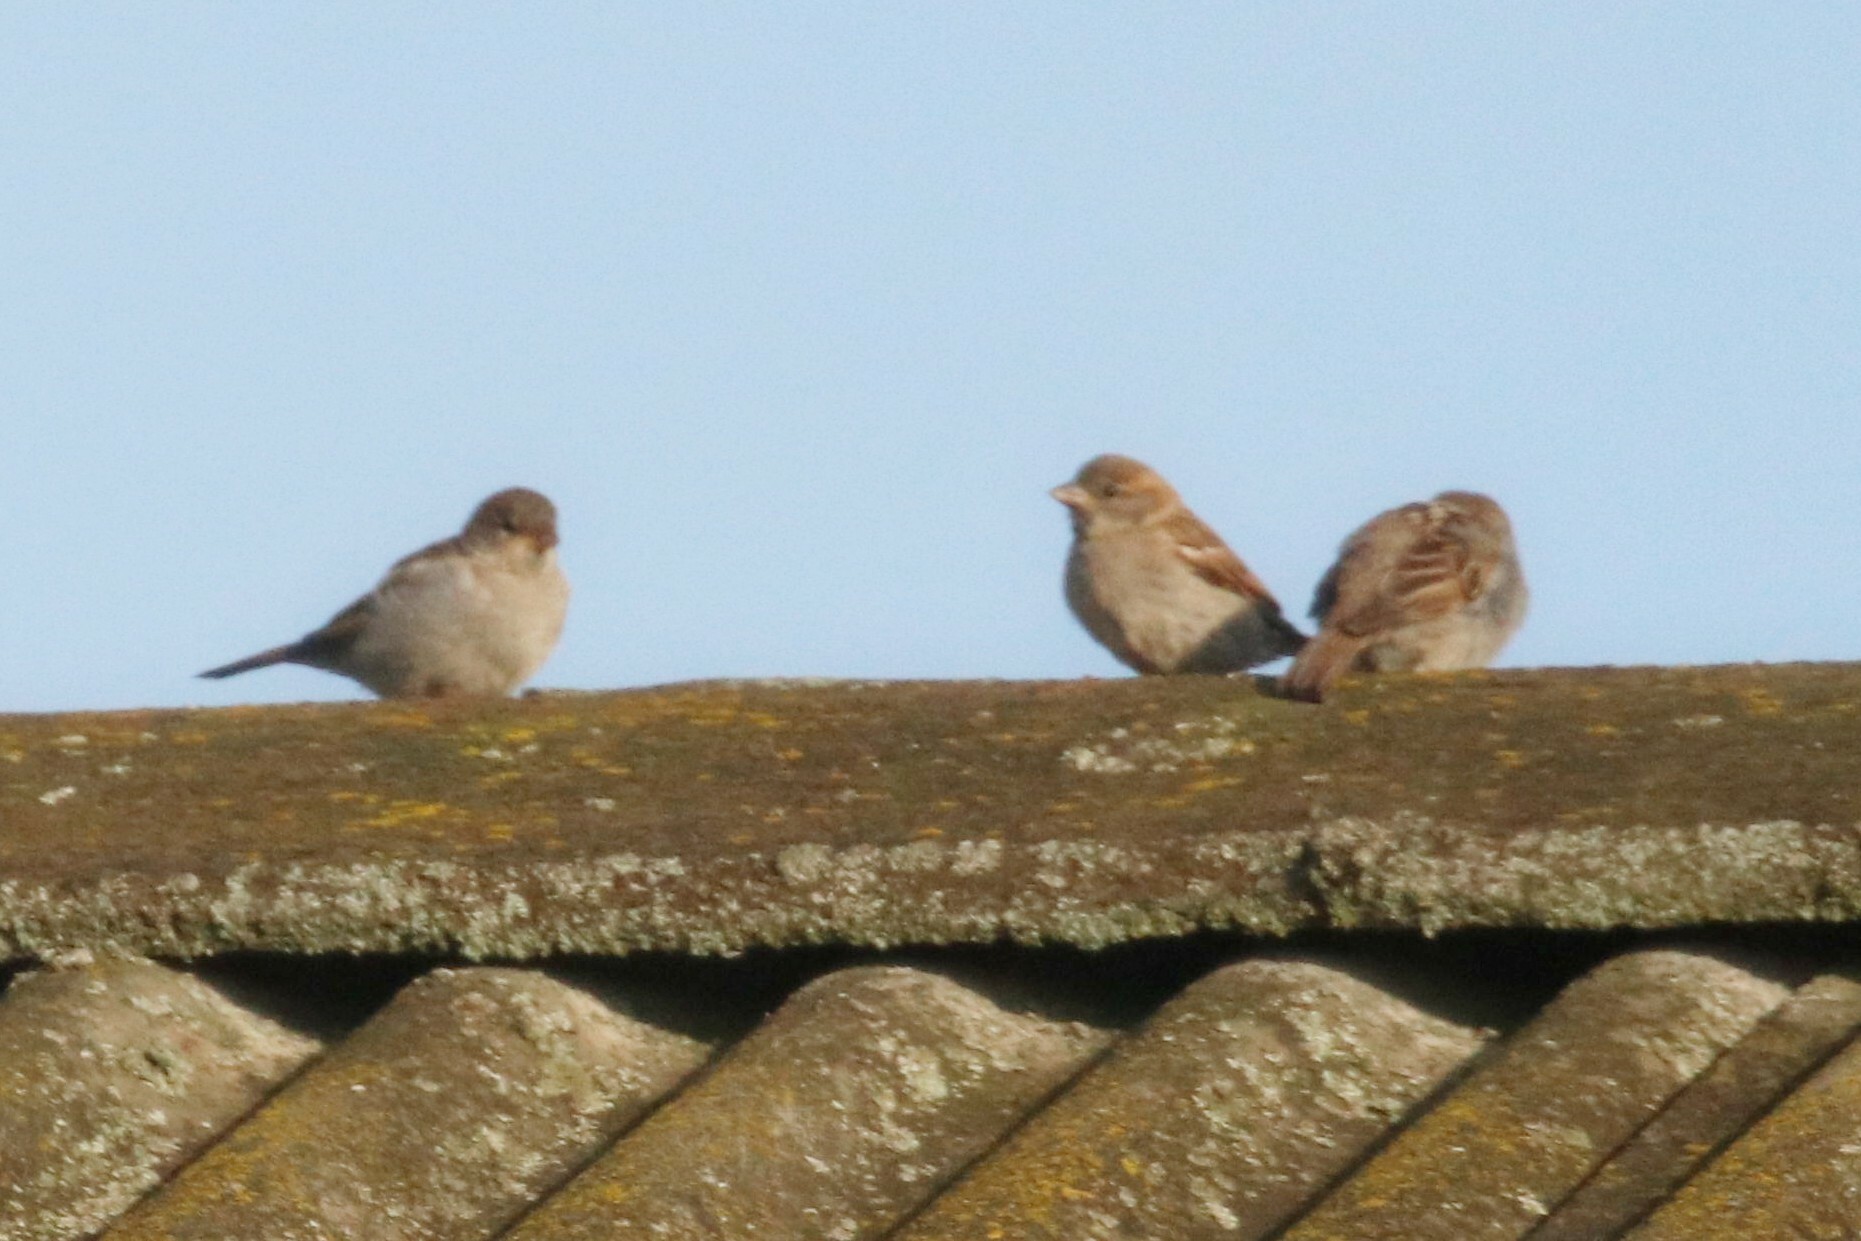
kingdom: Animalia
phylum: Chordata
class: Aves
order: Passeriformes
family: Passeridae
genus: Passer
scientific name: Passer domesticus
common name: House sparrow
